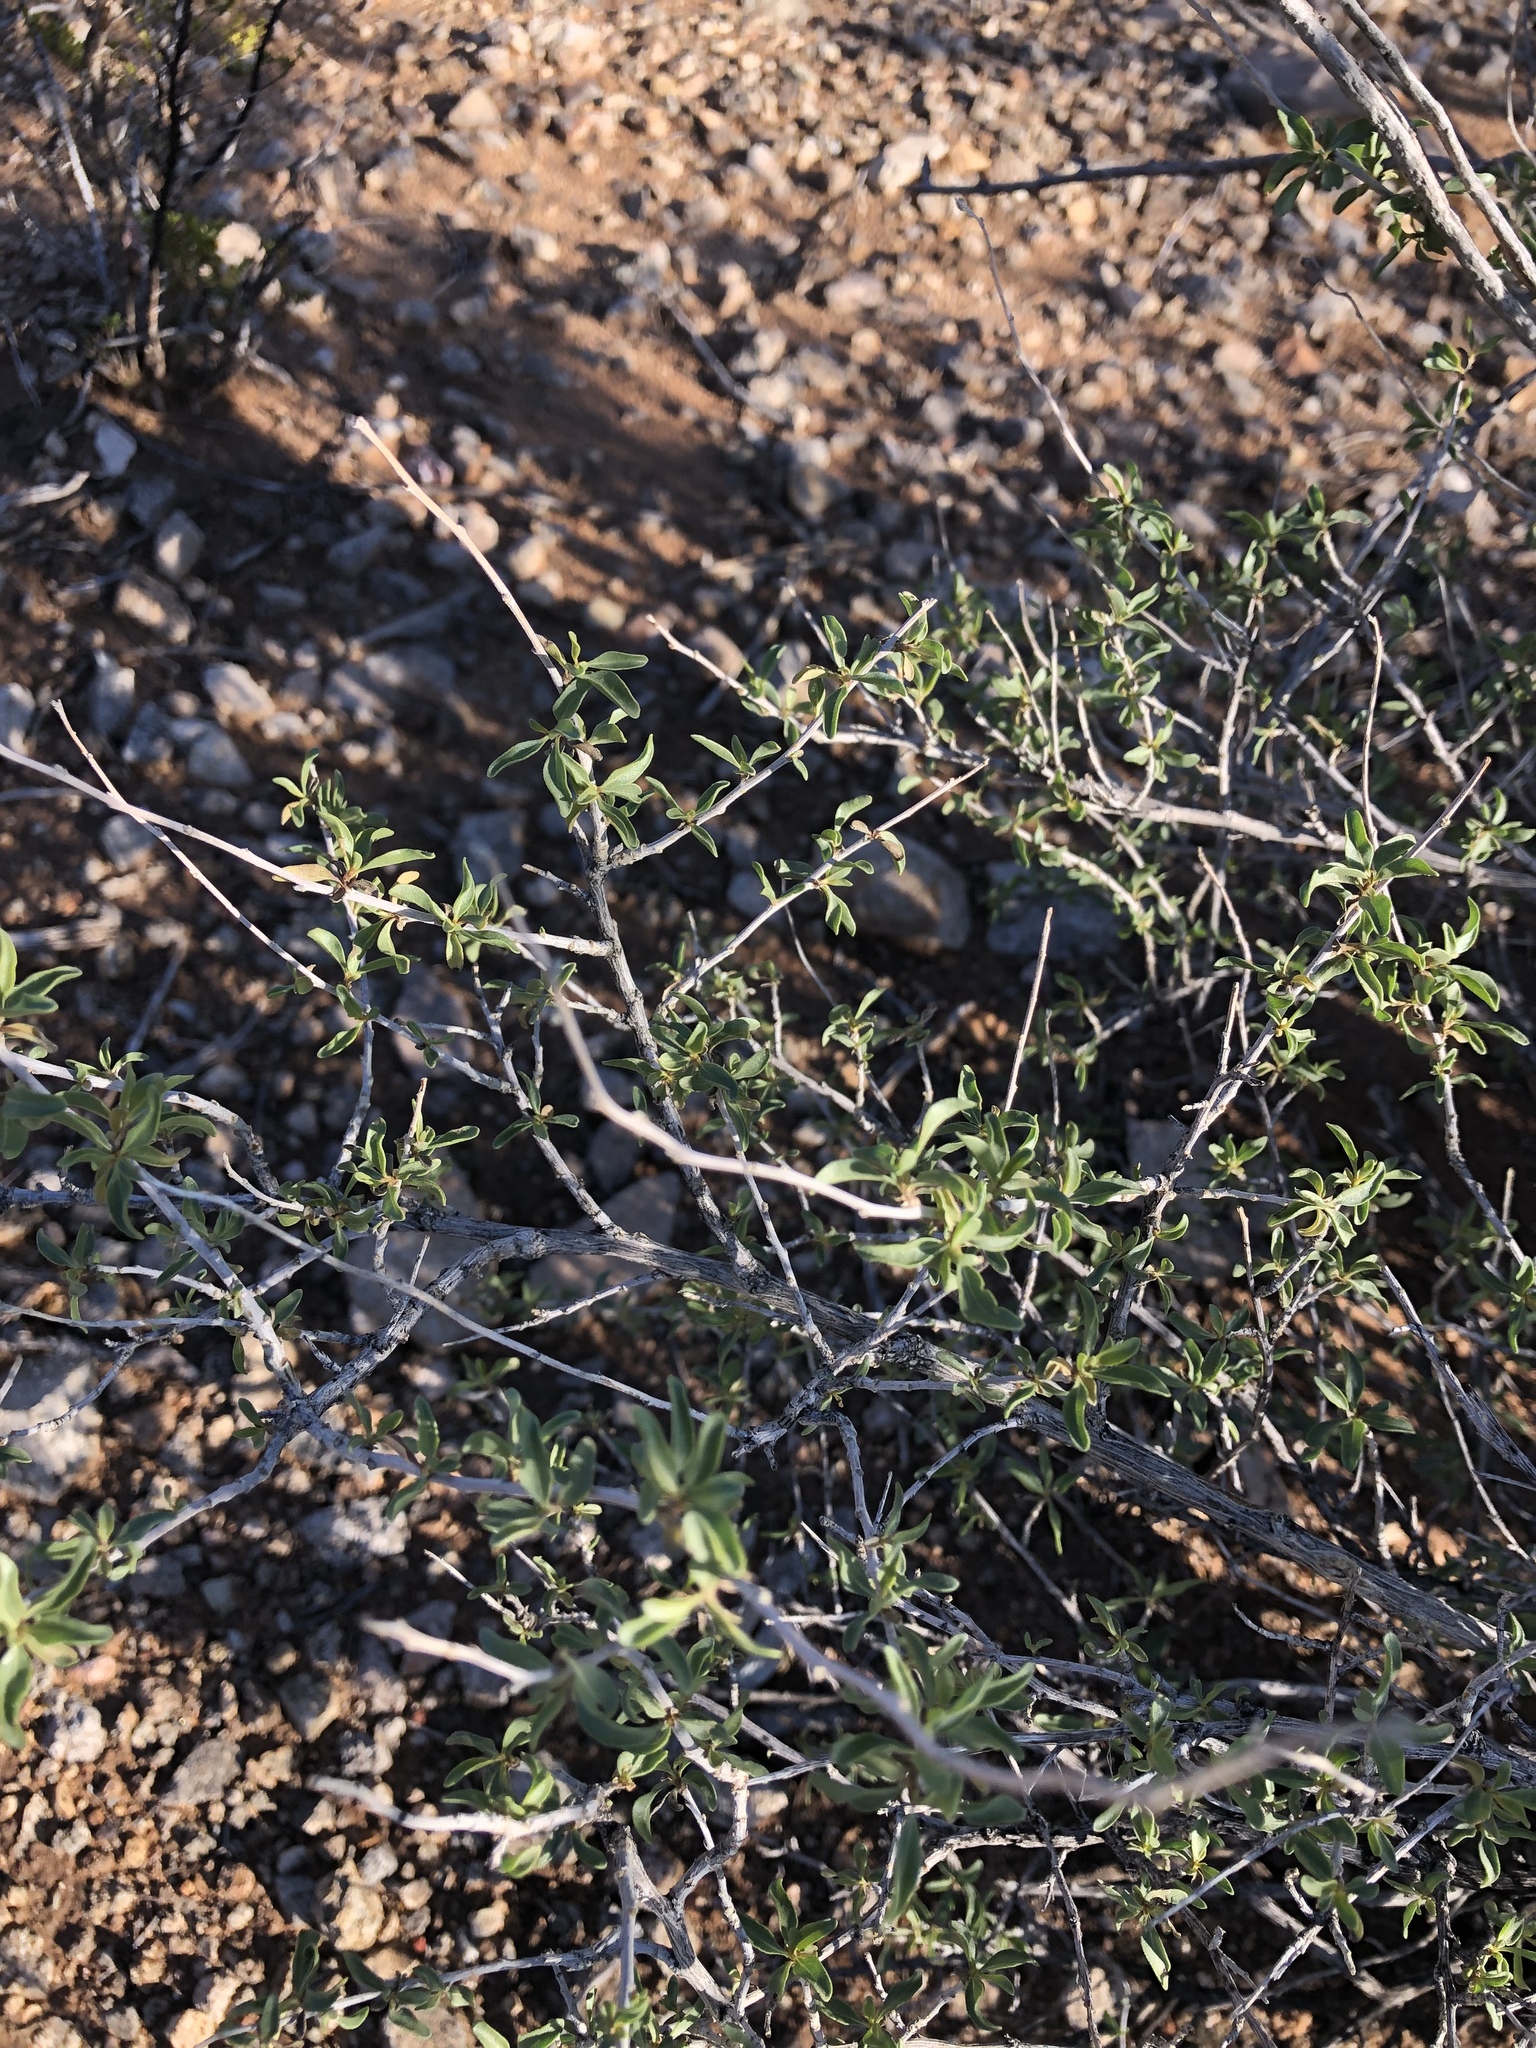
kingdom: Plantae
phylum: Tracheophyta
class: Magnoliopsida
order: Asterales
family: Asteraceae
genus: Flourensia
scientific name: Flourensia cernua
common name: Varnishbush
